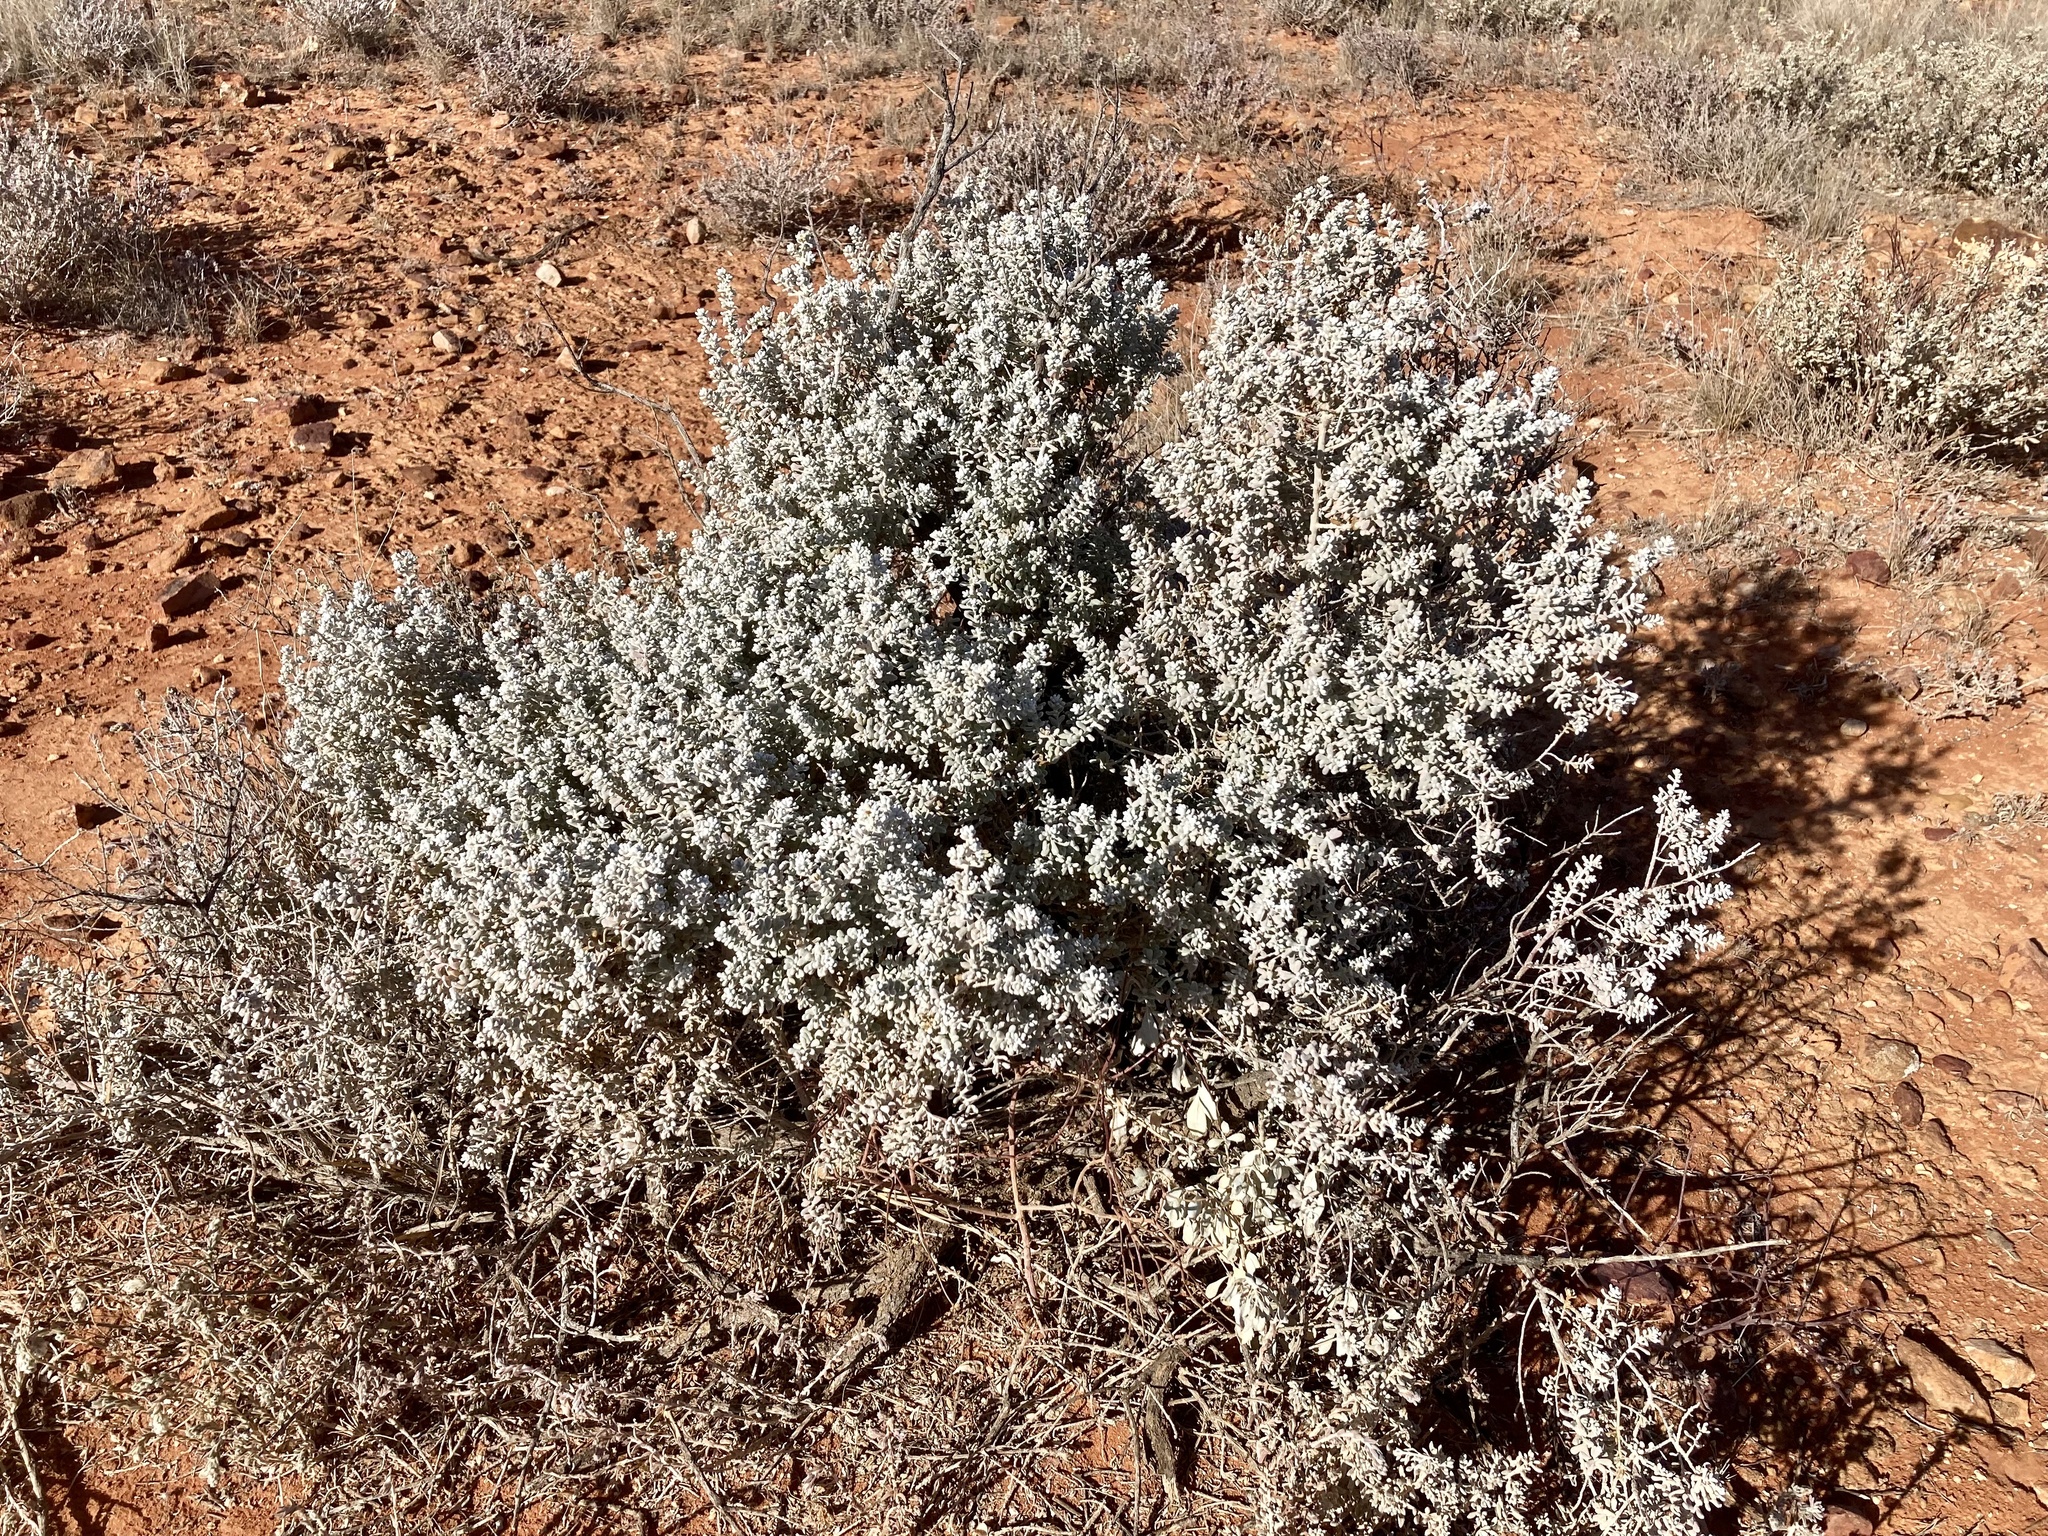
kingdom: Plantae
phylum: Tracheophyta
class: Magnoliopsida
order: Caryophyllales
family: Amaranthaceae
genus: Maireana
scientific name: Maireana sedifolia
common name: Hoary bluebush
